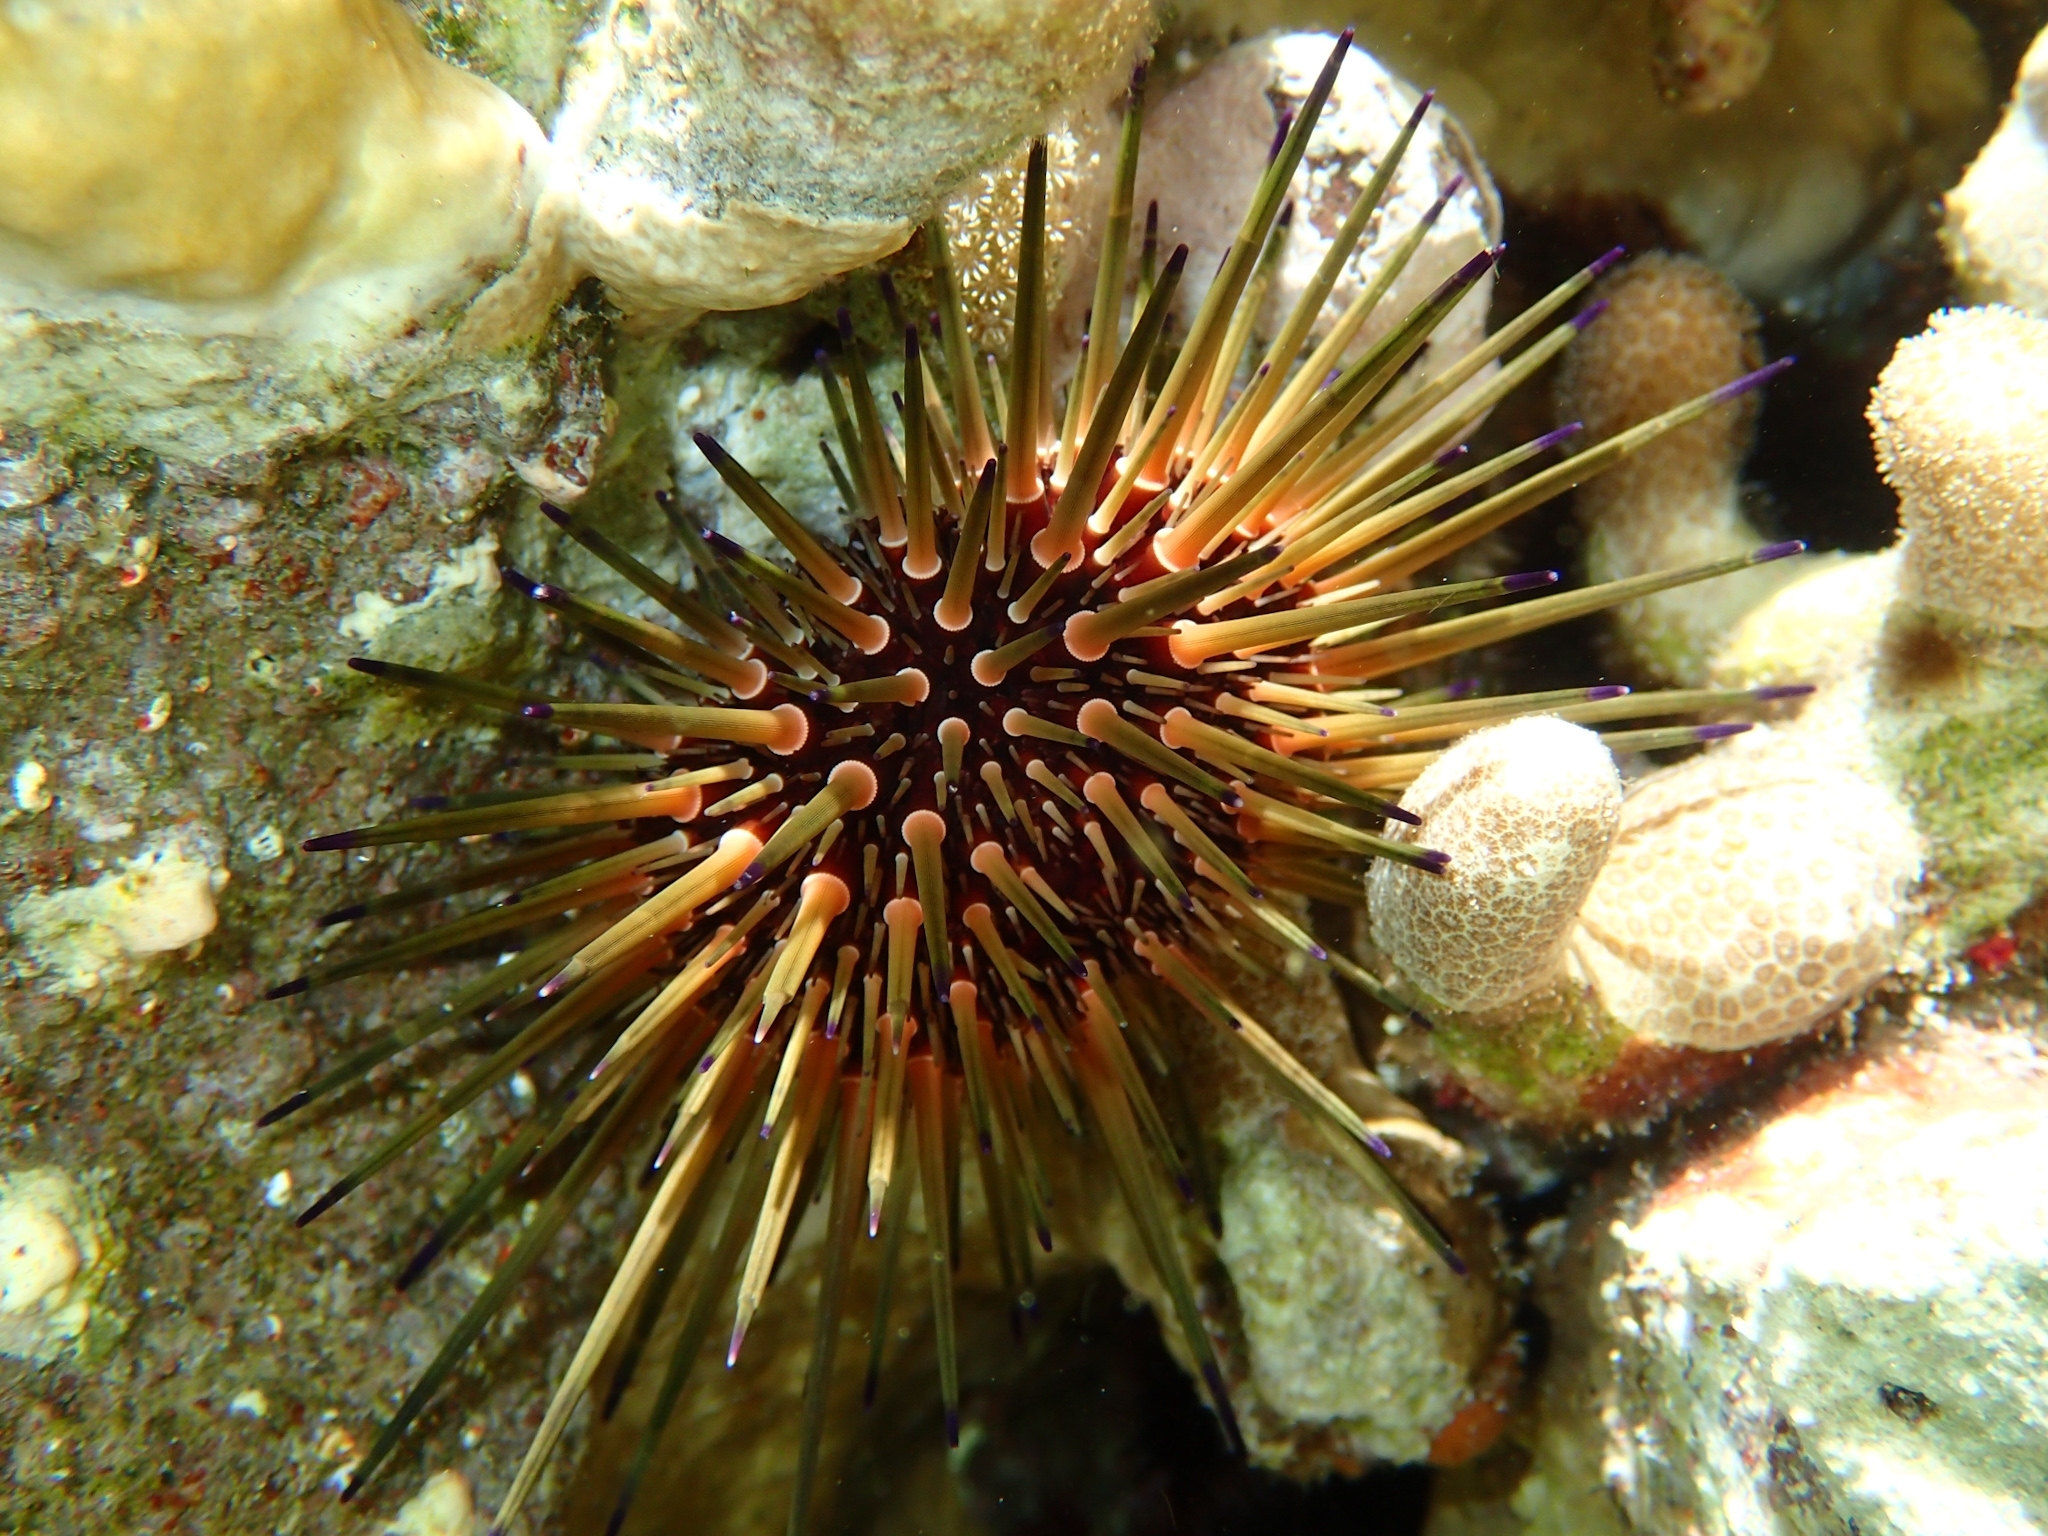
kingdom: Animalia
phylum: Echinodermata
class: Echinoidea
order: Camarodonta
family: Echinometridae
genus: Echinometra
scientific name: Echinometra viridis
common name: Reef urchin
